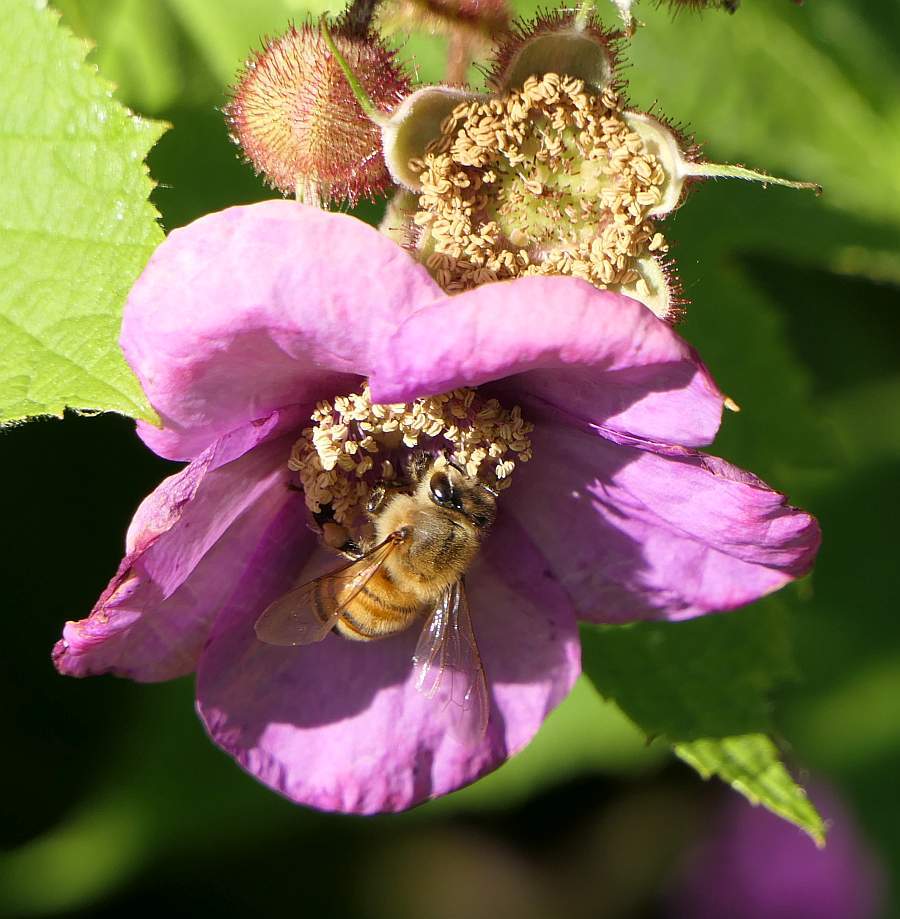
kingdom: Animalia
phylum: Arthropoda
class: Insecta
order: Hymenoptera
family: Apidae
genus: Apis
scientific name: Apis mellifera
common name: Honey bee
